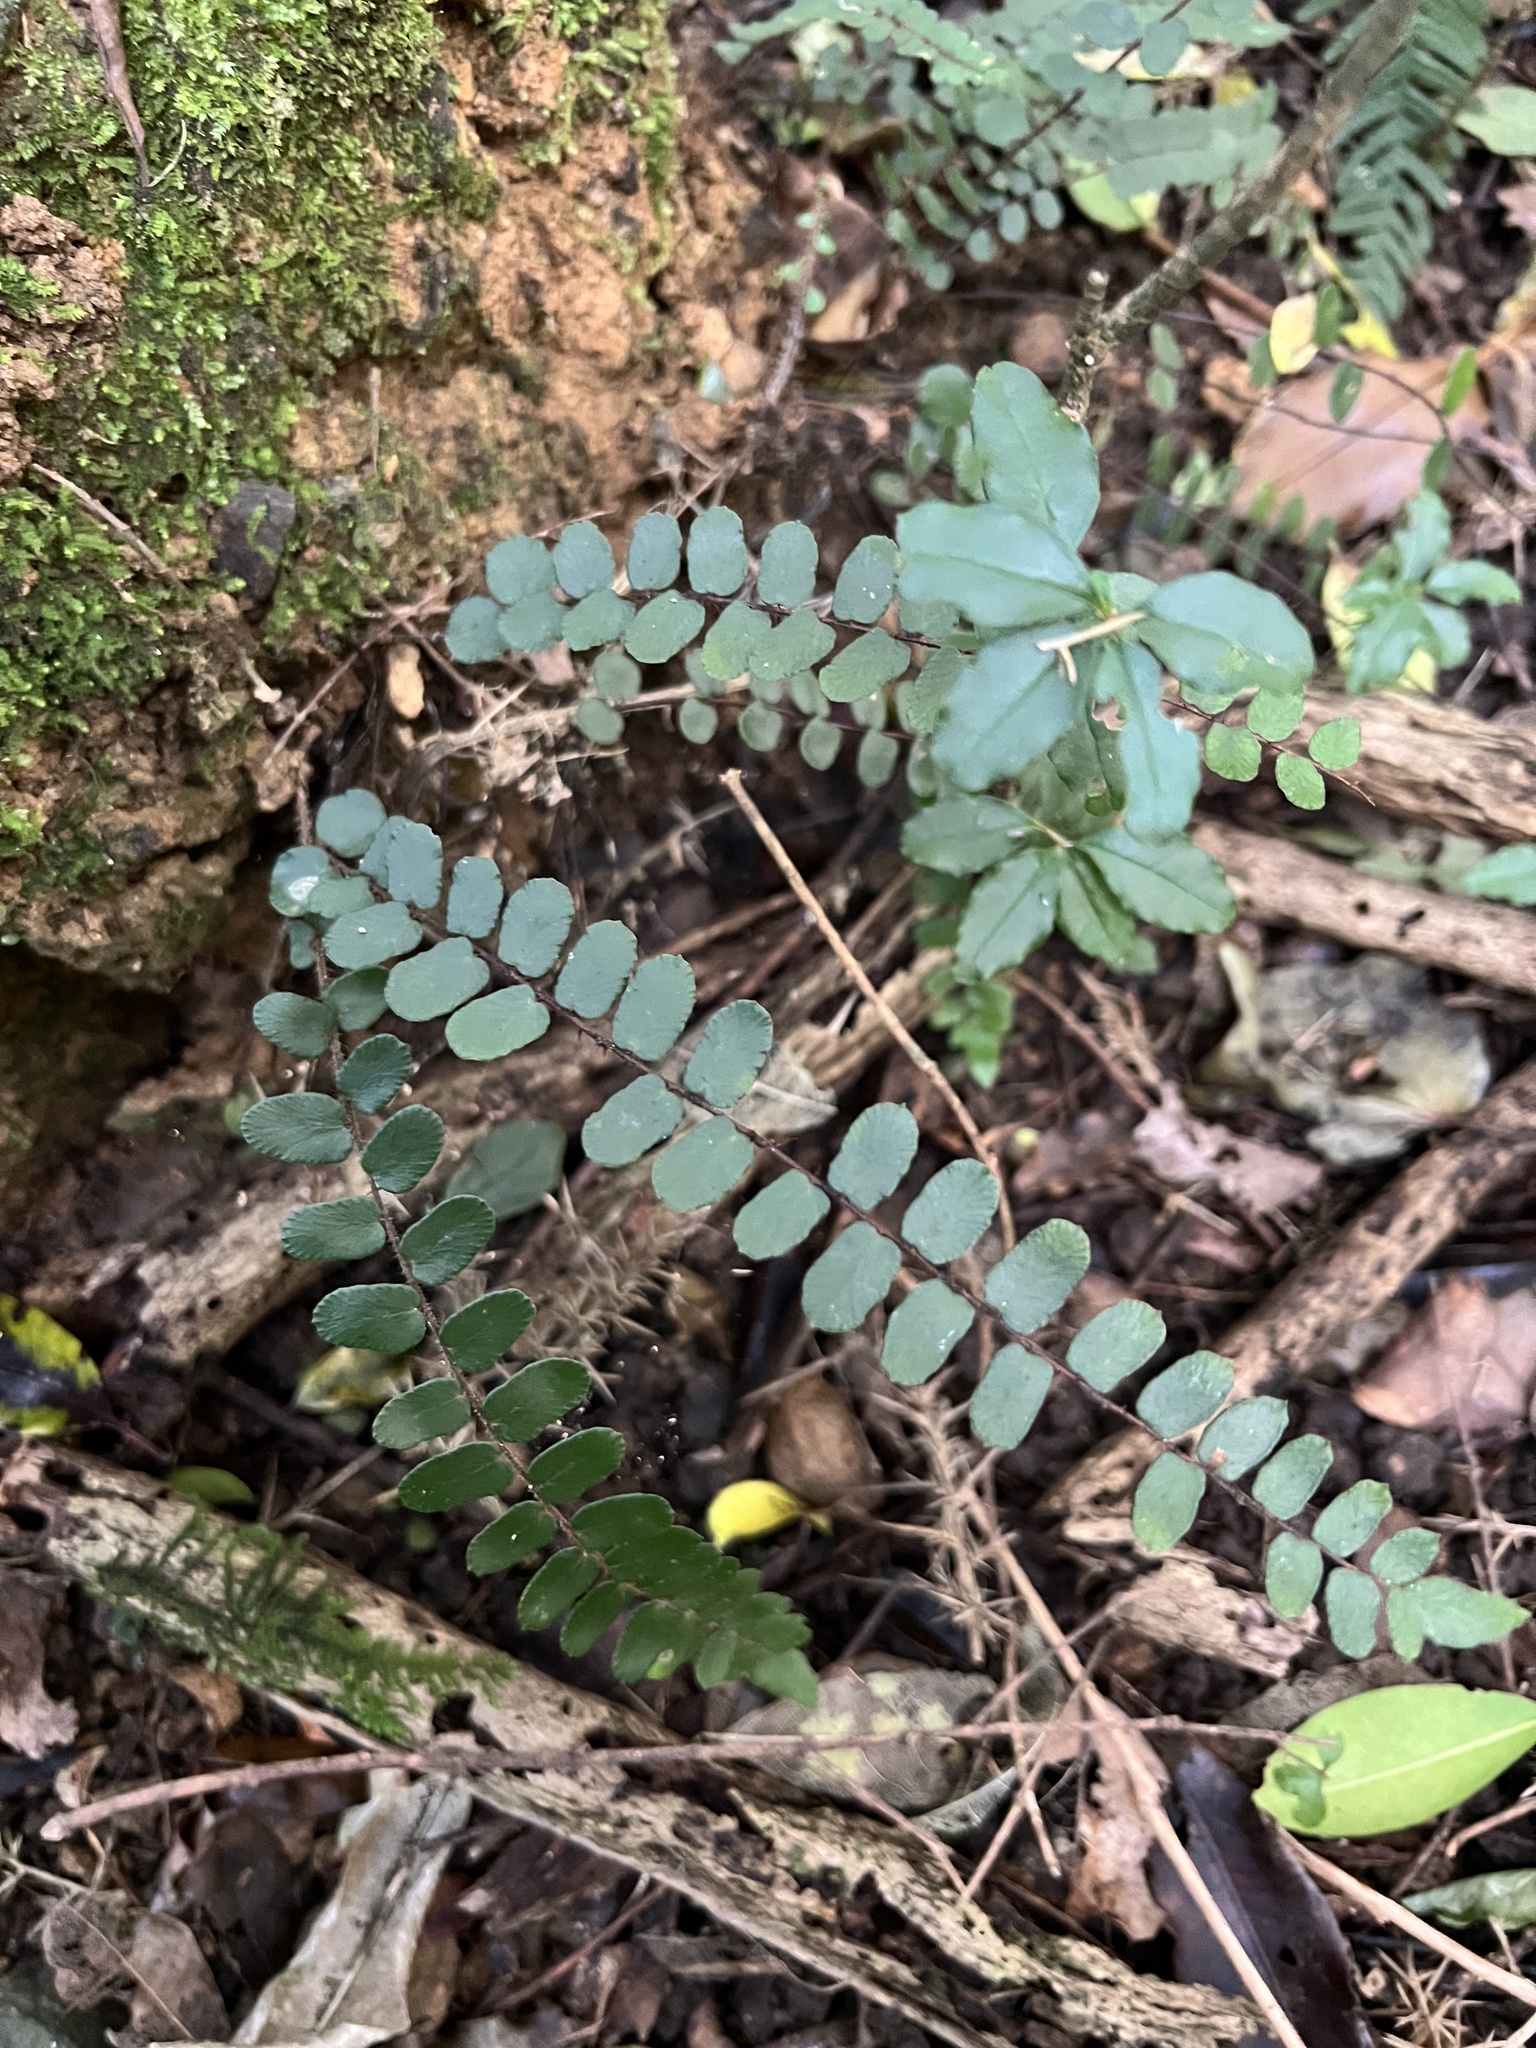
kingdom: Plantae
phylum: Tracheophyta
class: Polypodiopsida
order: Polypodiales
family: Pteridaceae
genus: Pellaea
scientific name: Pellaea rotundifolia
